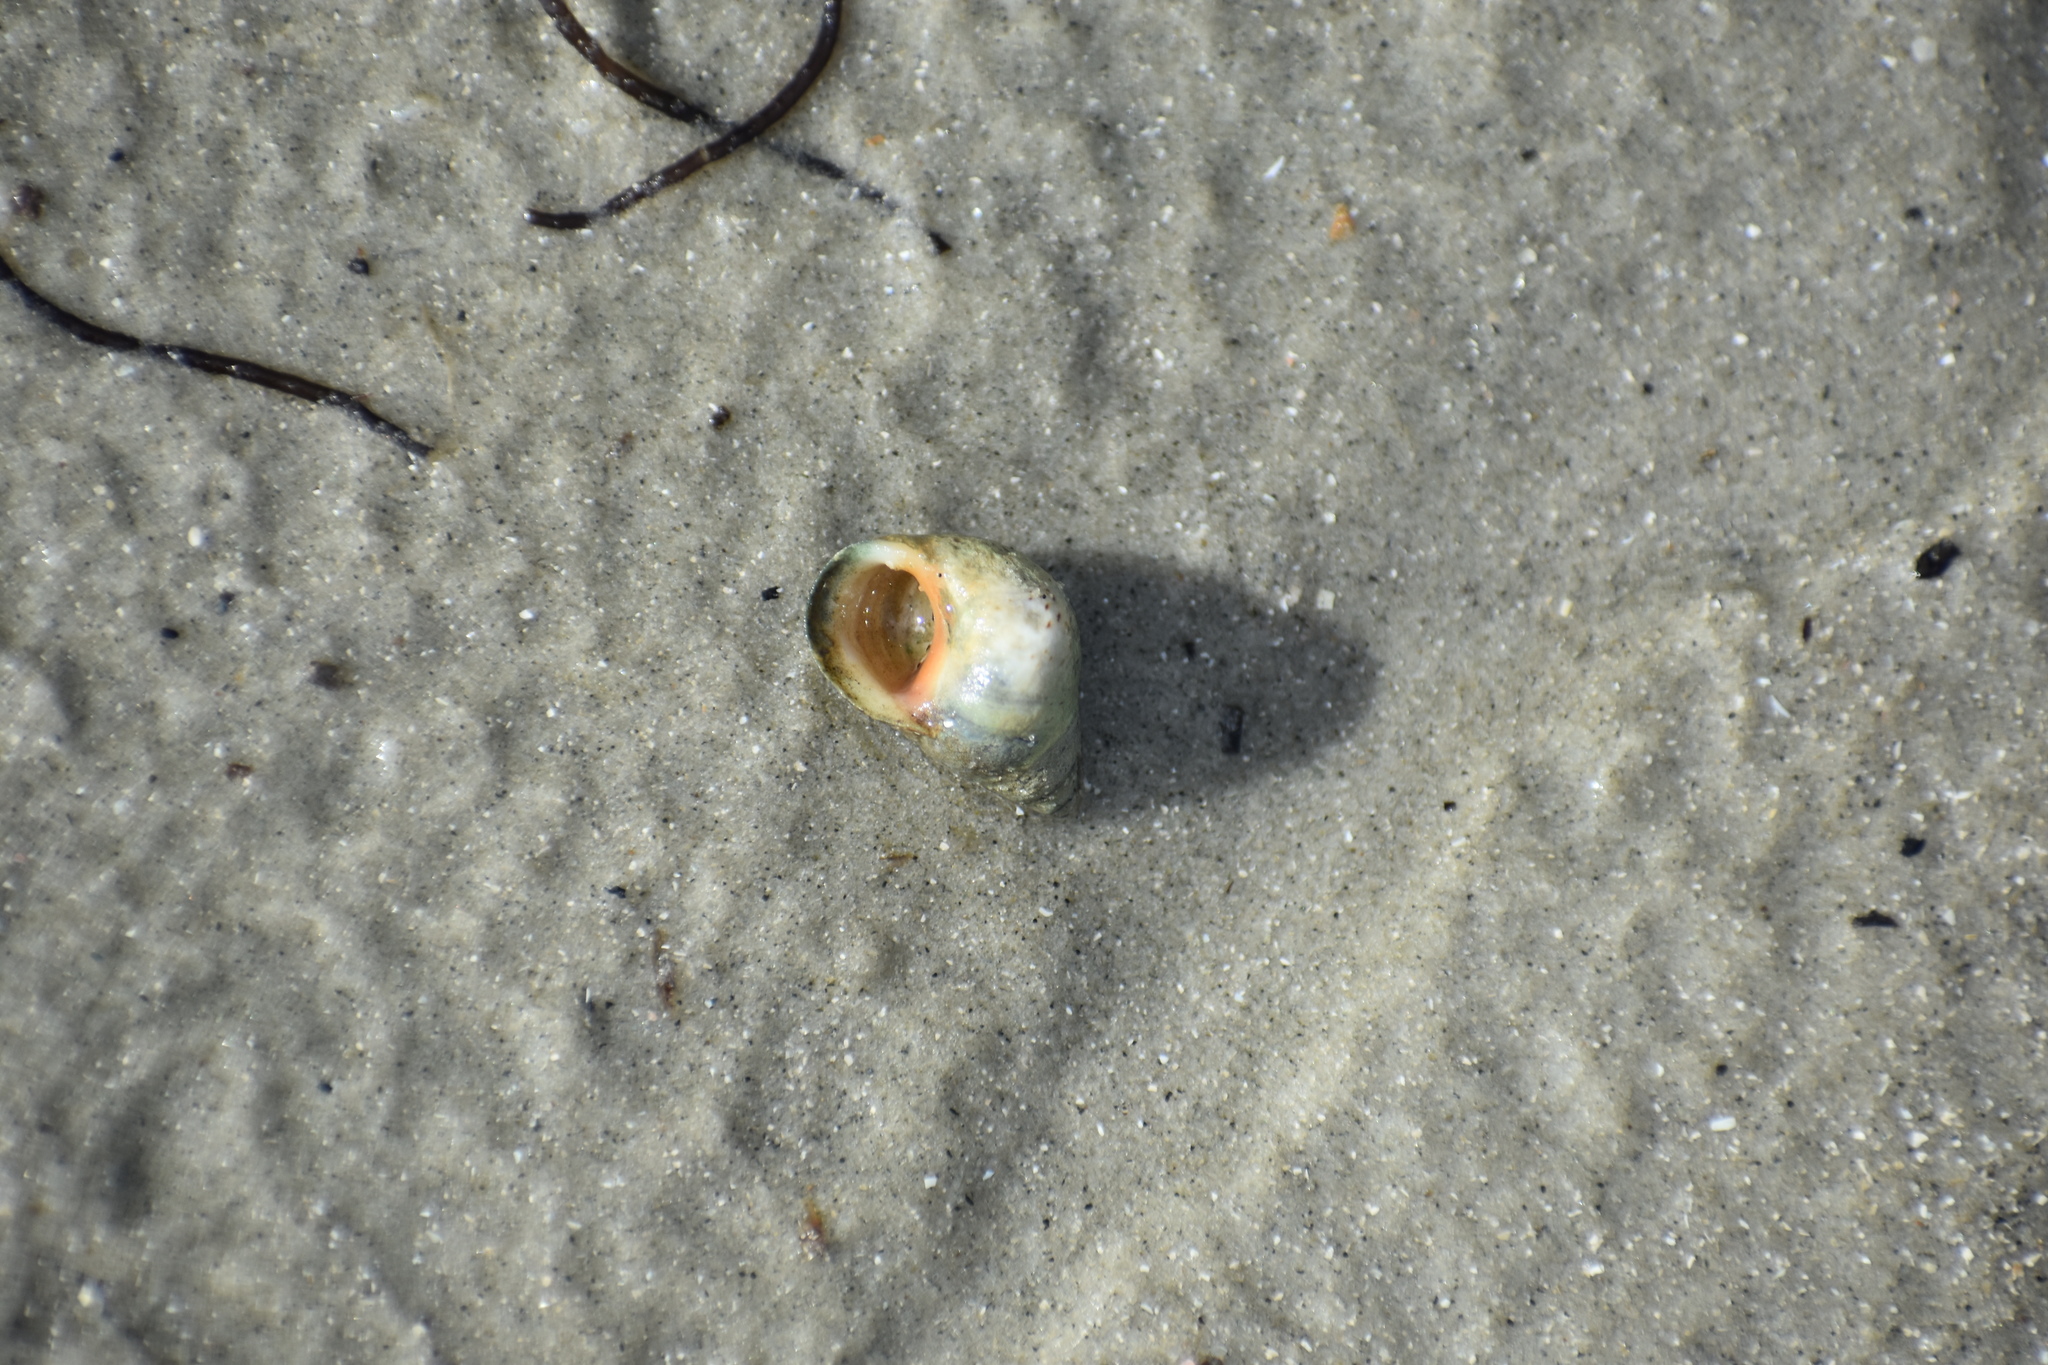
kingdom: Animalia
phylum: Mollusca
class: Gastropoda
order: Littorinimorpha
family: Littorinidae
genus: Littoraria
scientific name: Littoraria irrorata
